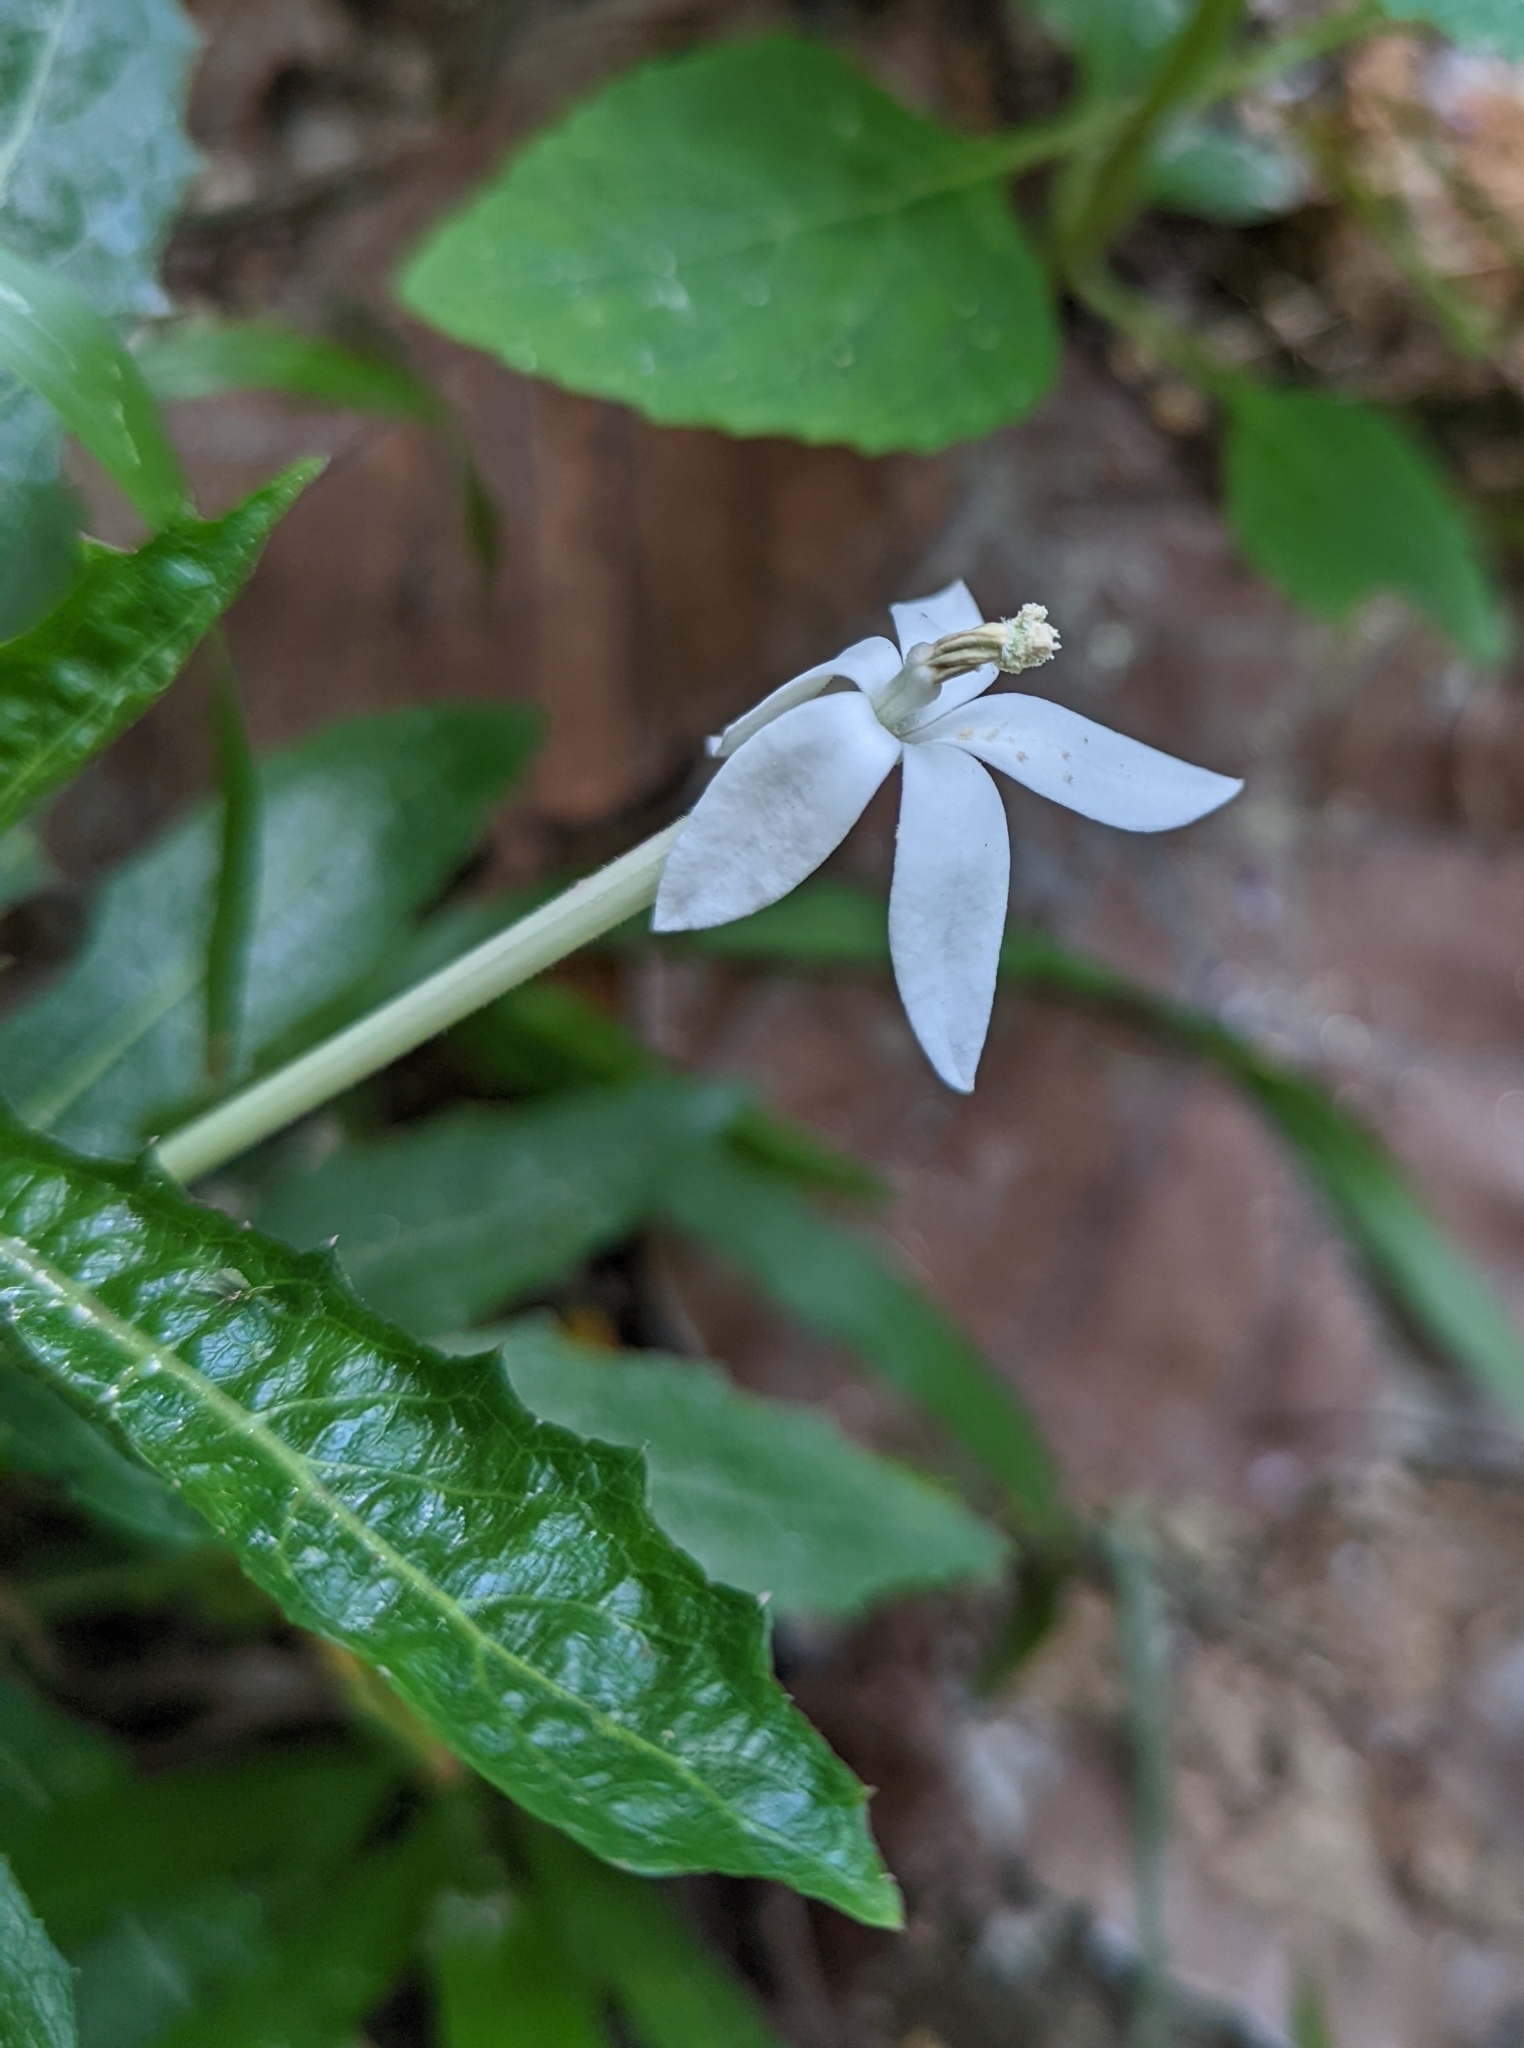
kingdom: Plantae
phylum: Tracheophyta
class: Magnoliopsida
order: Asterales
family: Campanulaceae
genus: Hippobroma
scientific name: Hippobroma longiflora
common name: Madamfate
